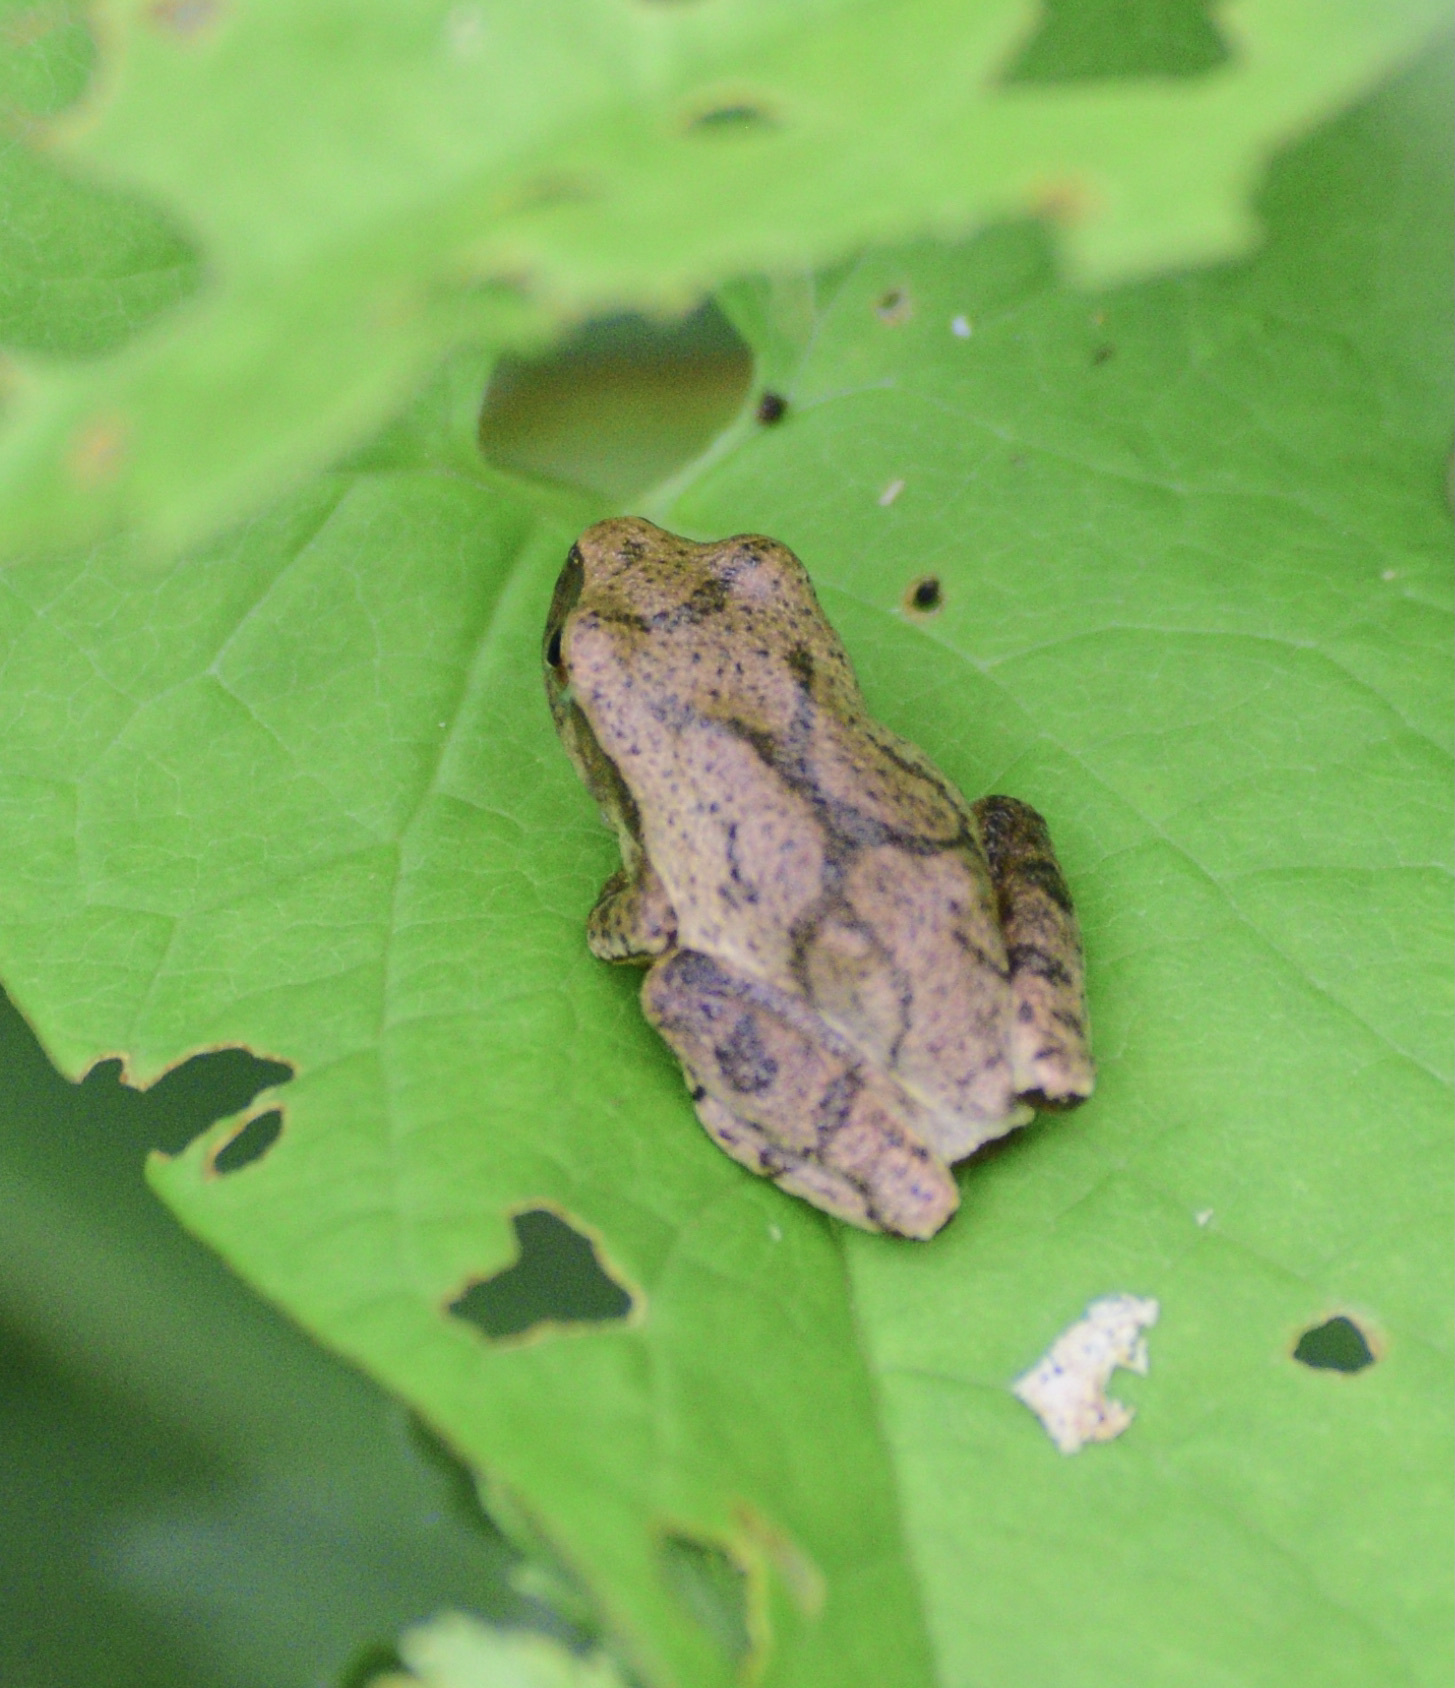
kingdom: Animalia
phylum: Chordata
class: Amphibia
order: Anura
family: Hylidae
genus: Pseudacris
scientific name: Pseudacris crucifer
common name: Spring peeper
